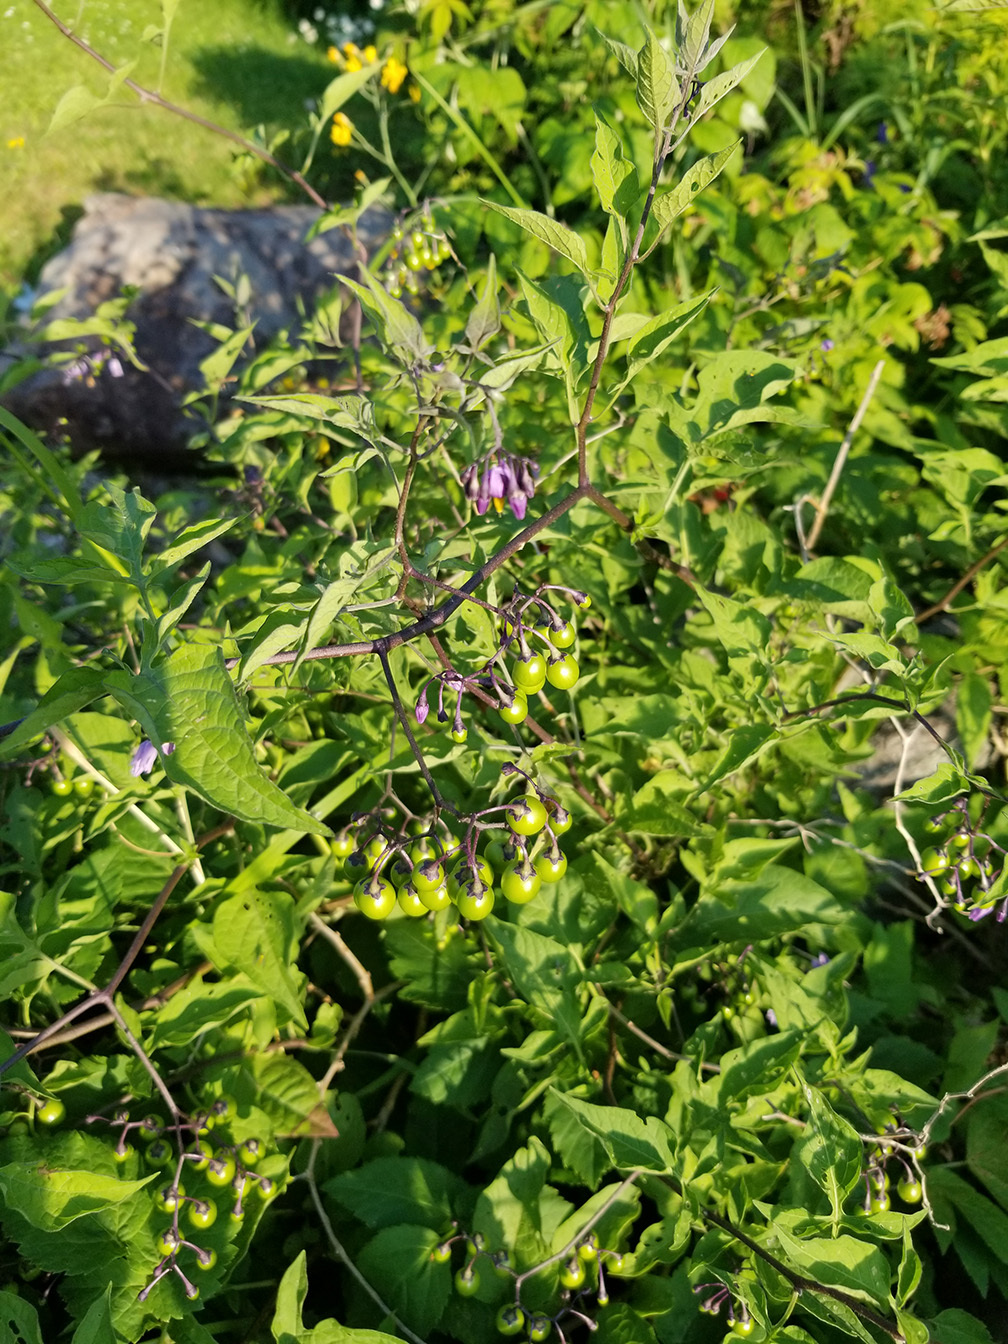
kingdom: Plantae
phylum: Tracheophyta
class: Magnoliopsida
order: Solanales
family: Solanaceae
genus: Solanum
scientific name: Solanum dulcamara
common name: Climbing nightshade
